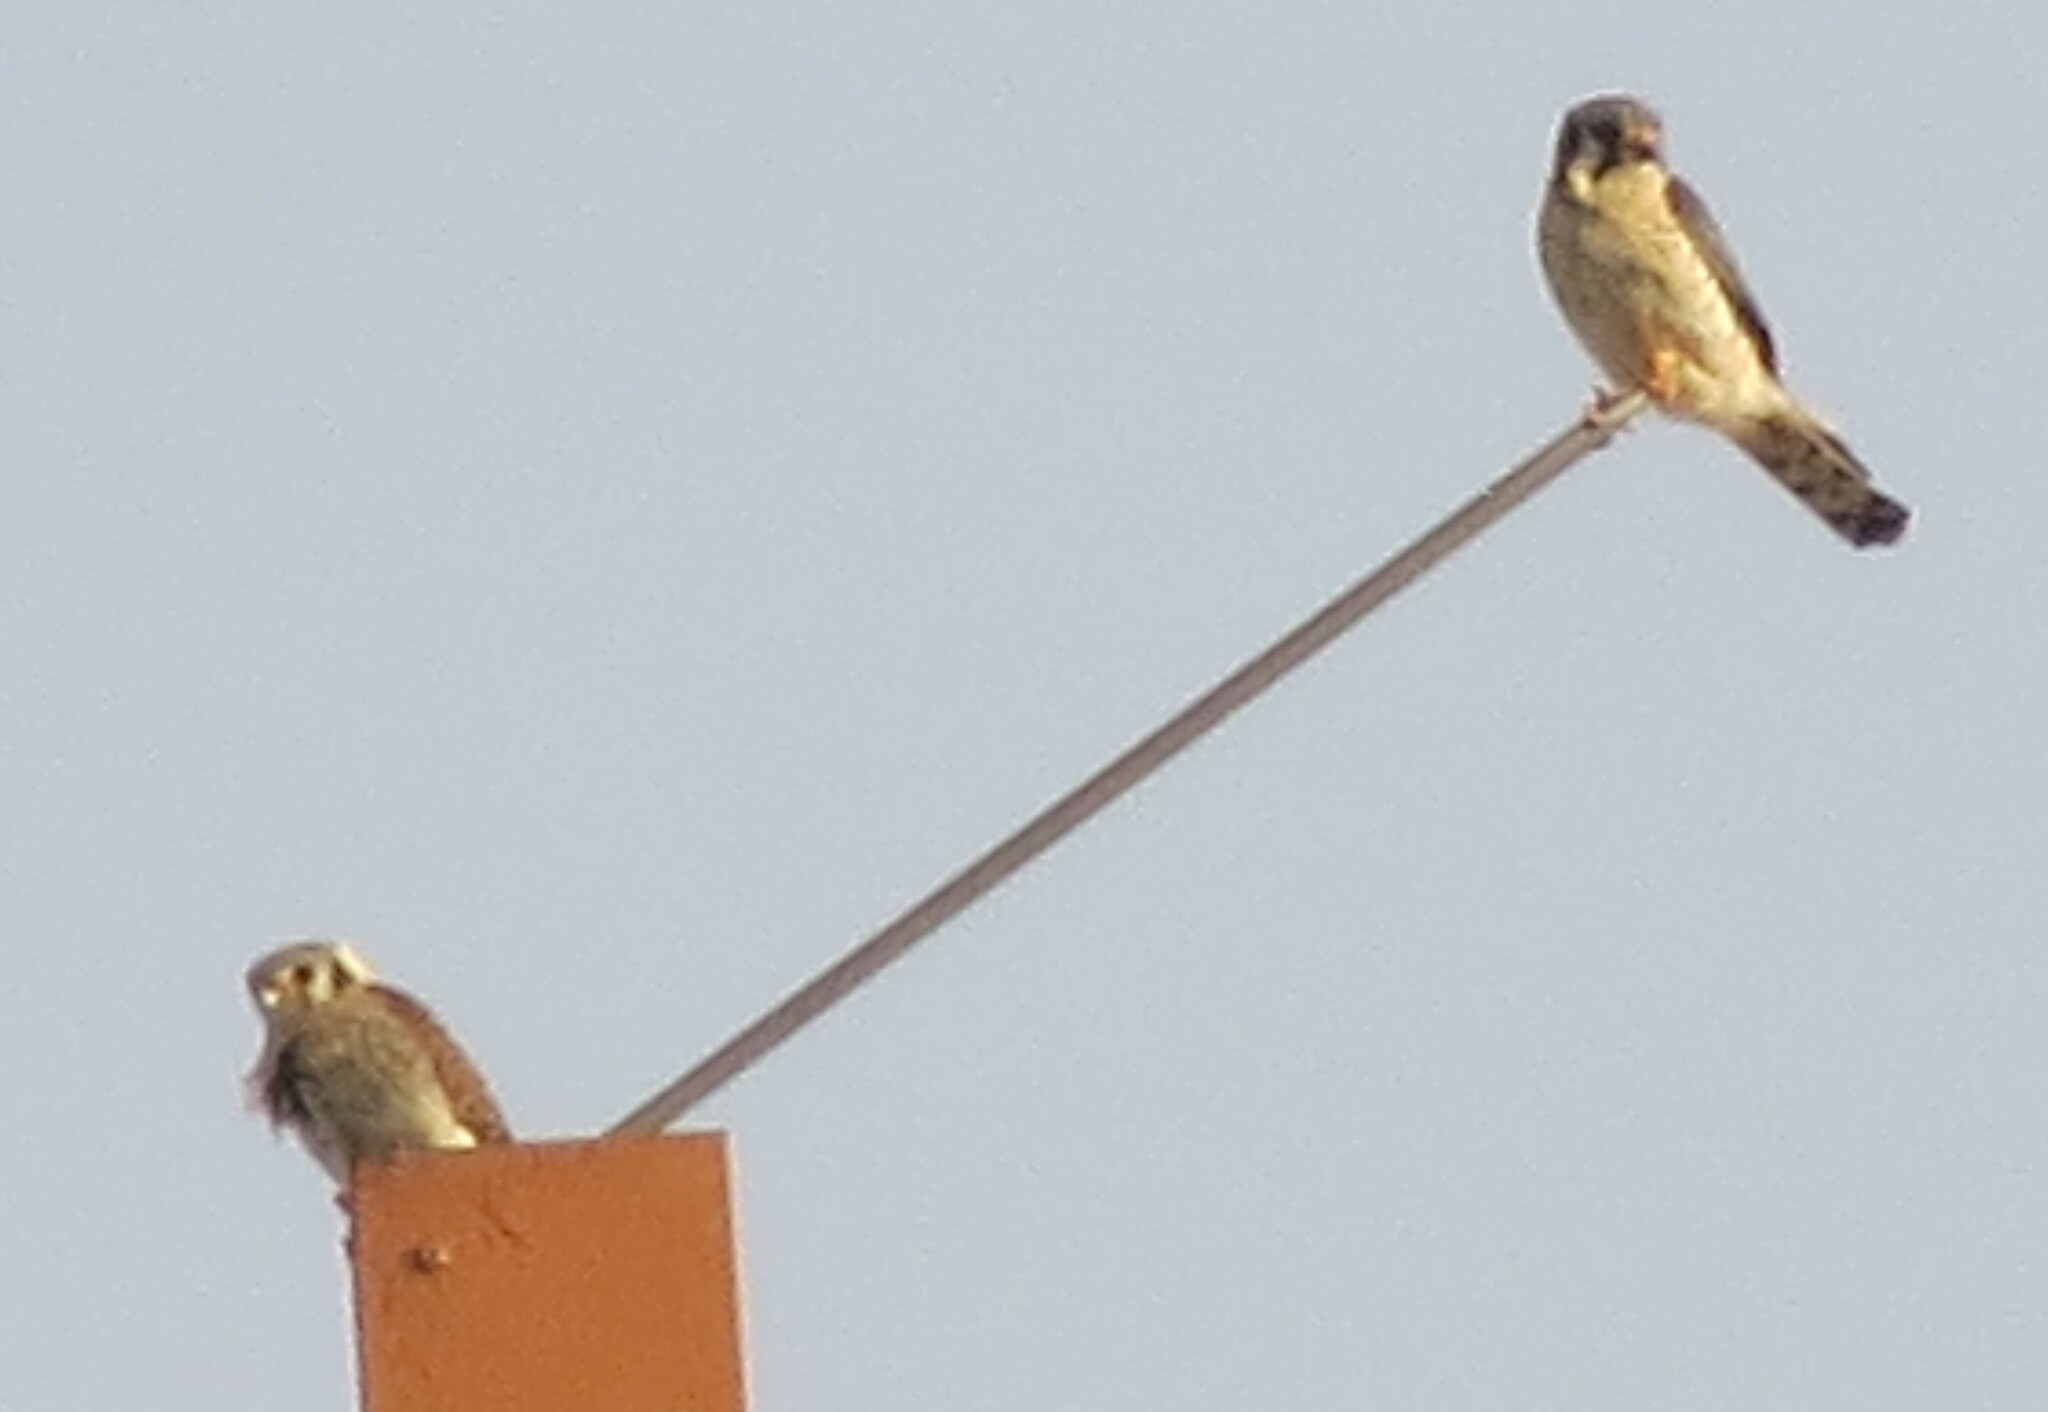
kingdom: Animalia
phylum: Chordata
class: Aves
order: Falconiformes
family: Falconidae
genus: Falco
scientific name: Falco sparverius
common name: American kestrel
